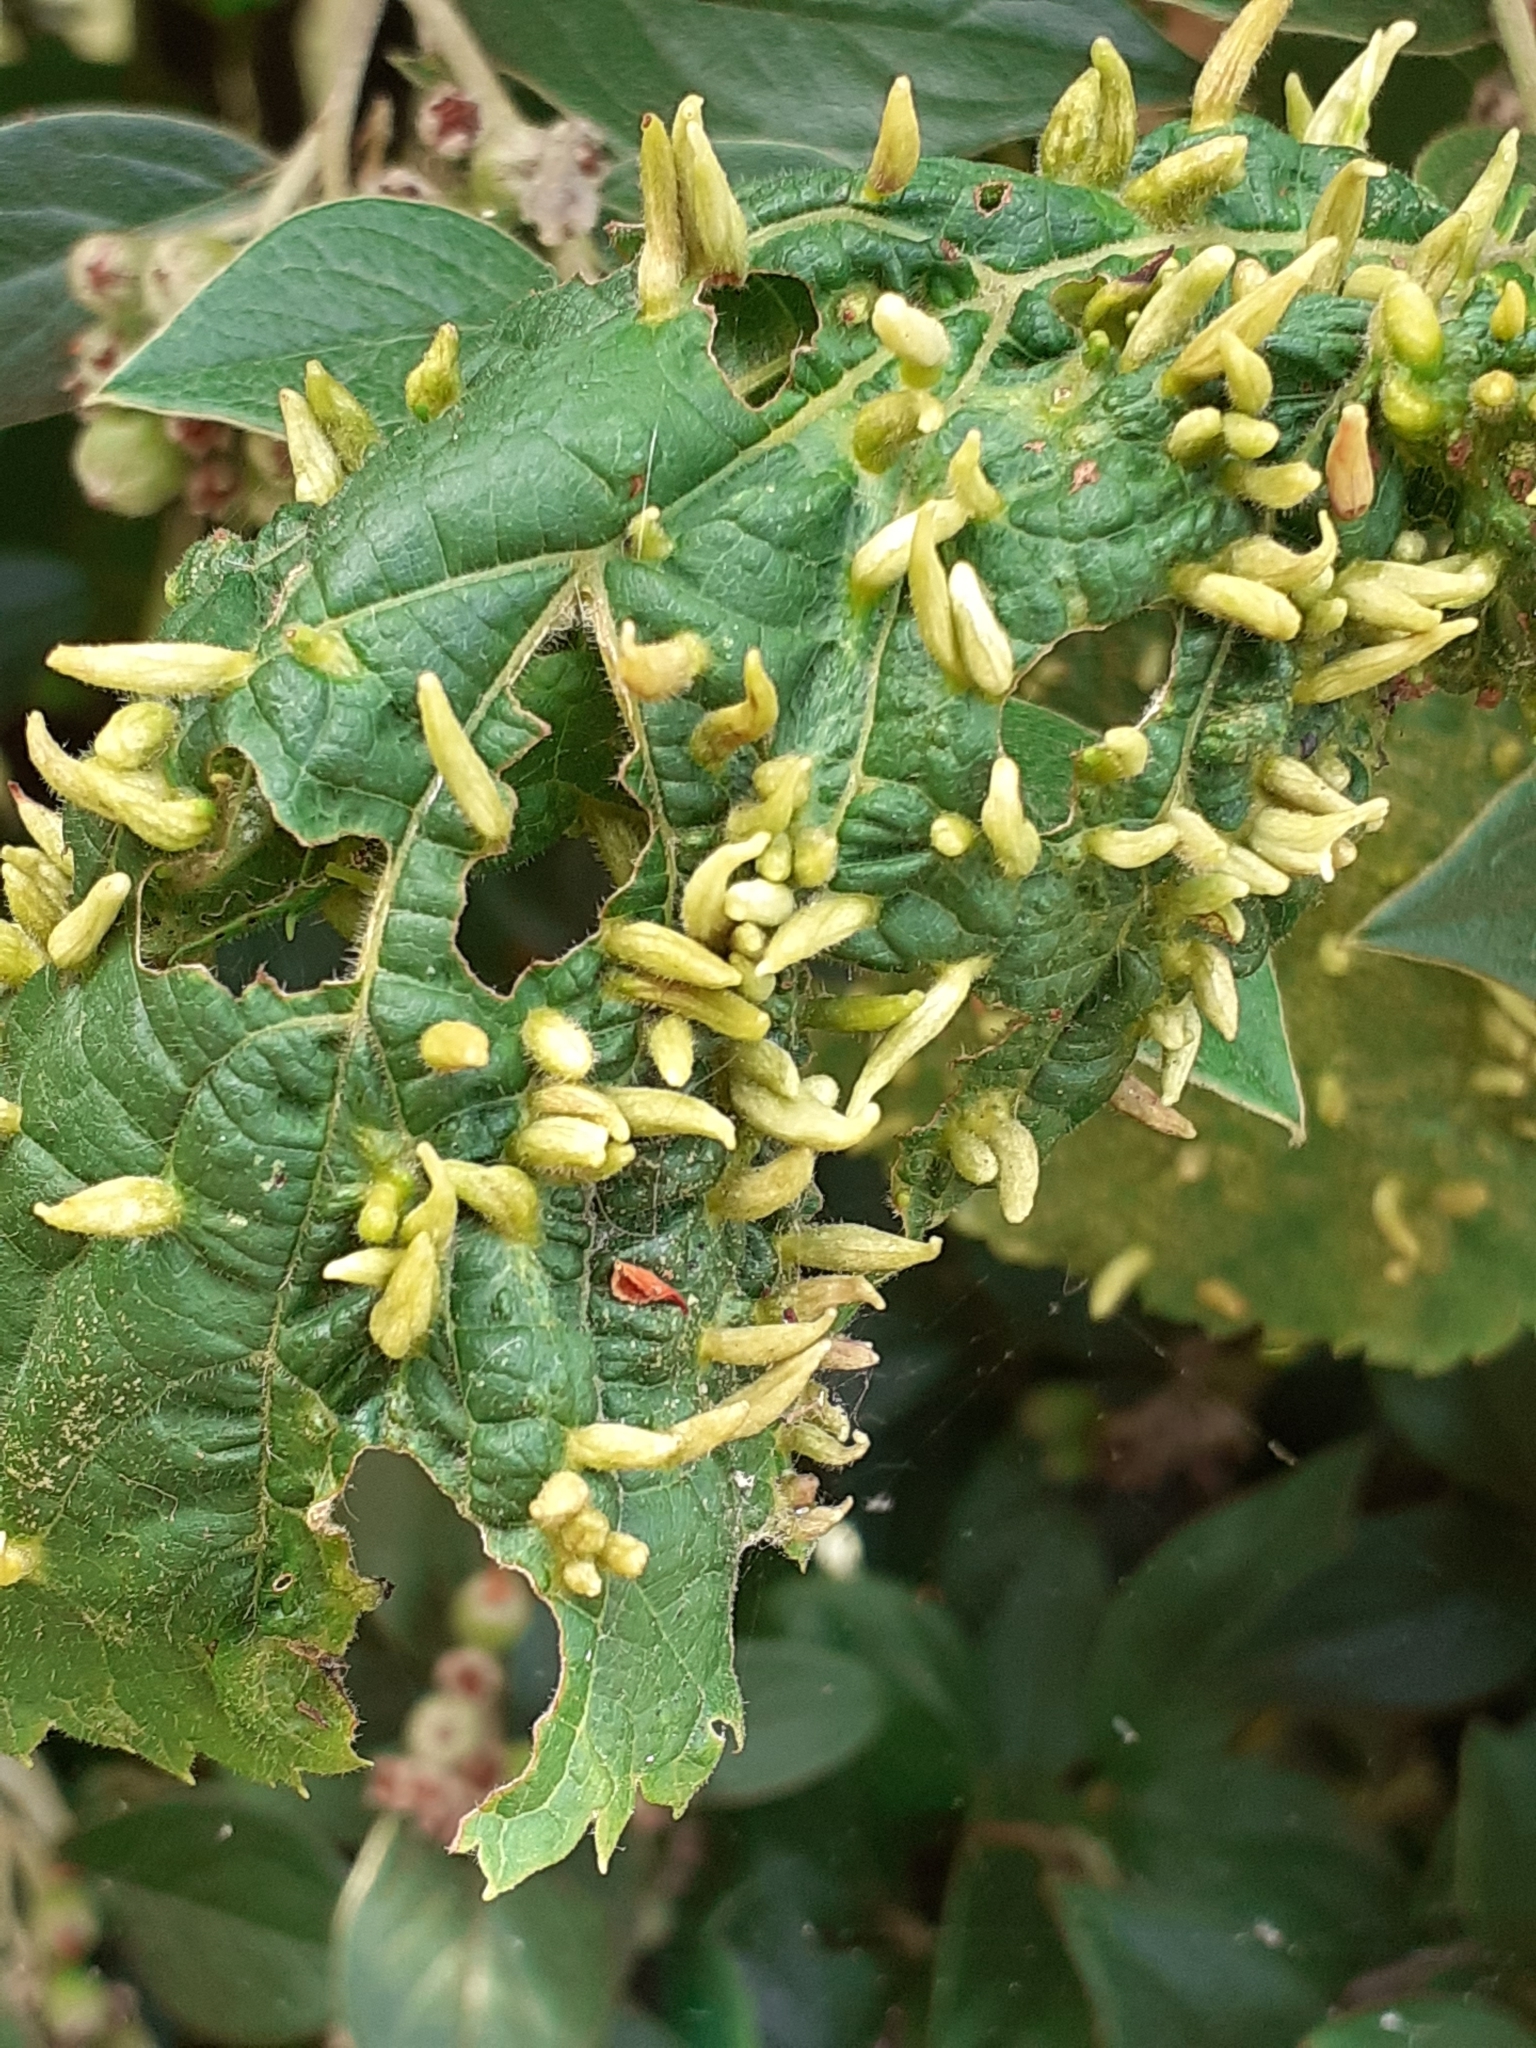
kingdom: Animalia
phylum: Arthropoda
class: Arachnida
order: Trombidiformes
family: Eriophyidae
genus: Eriophyes
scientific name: Eriophyes tiliae
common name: Red nail gall mite
